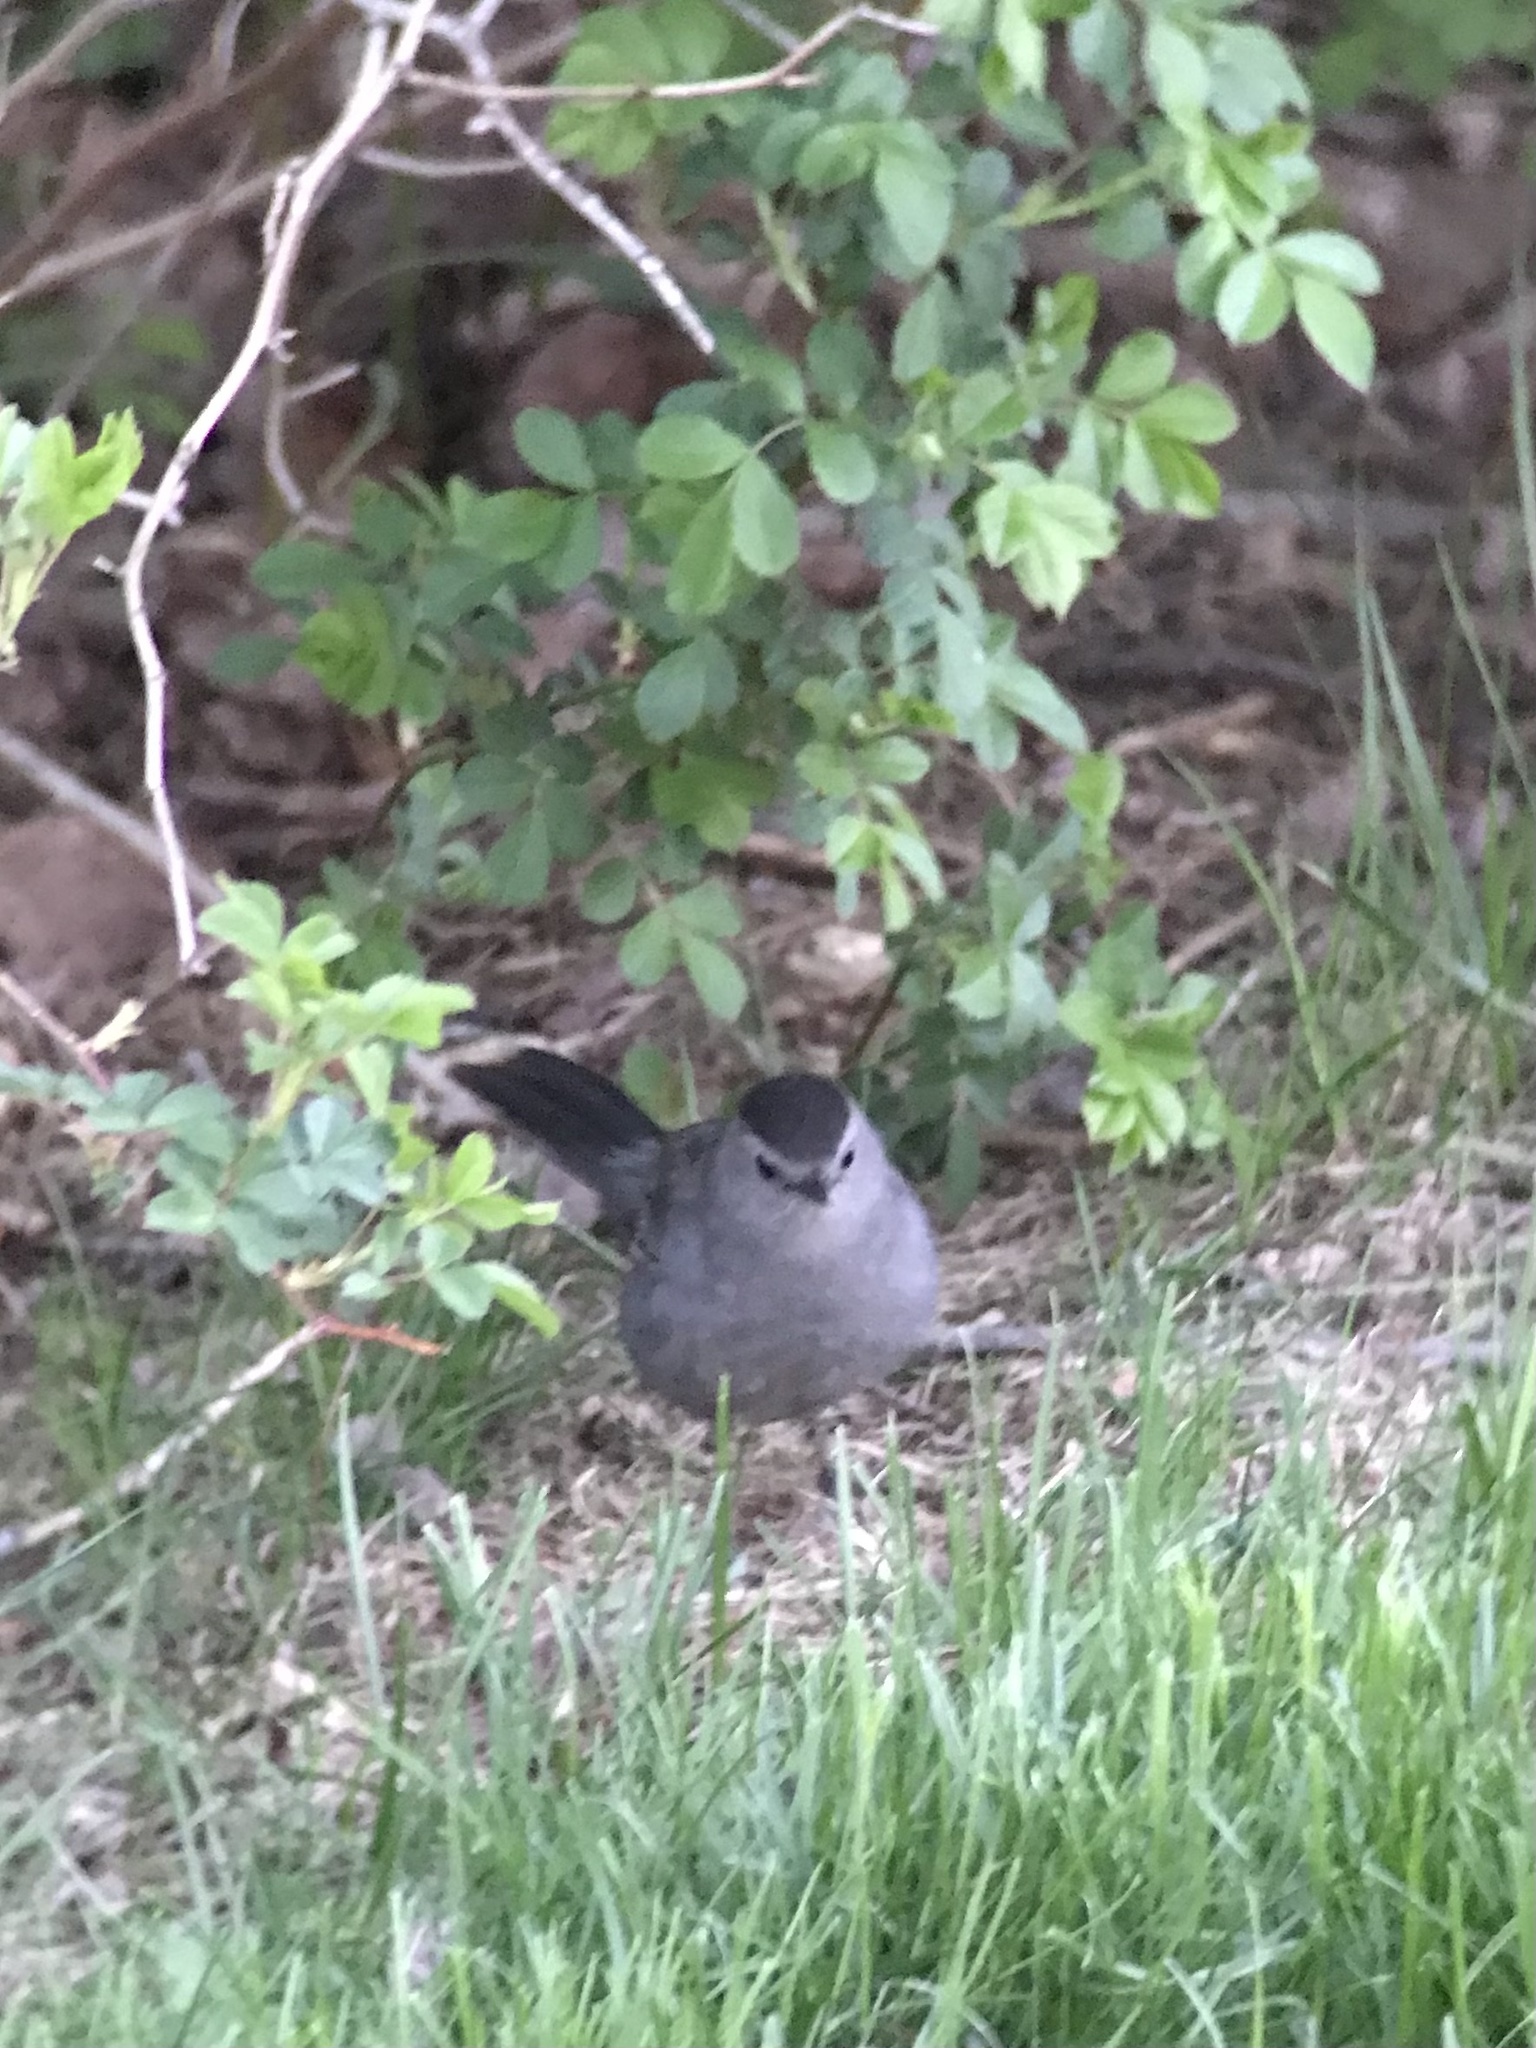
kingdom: Animalia
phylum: Chordata
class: Aves
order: Passeriformes
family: Mimidae
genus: Dumetella
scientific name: Dumetella carolinensis
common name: Gray catbird
